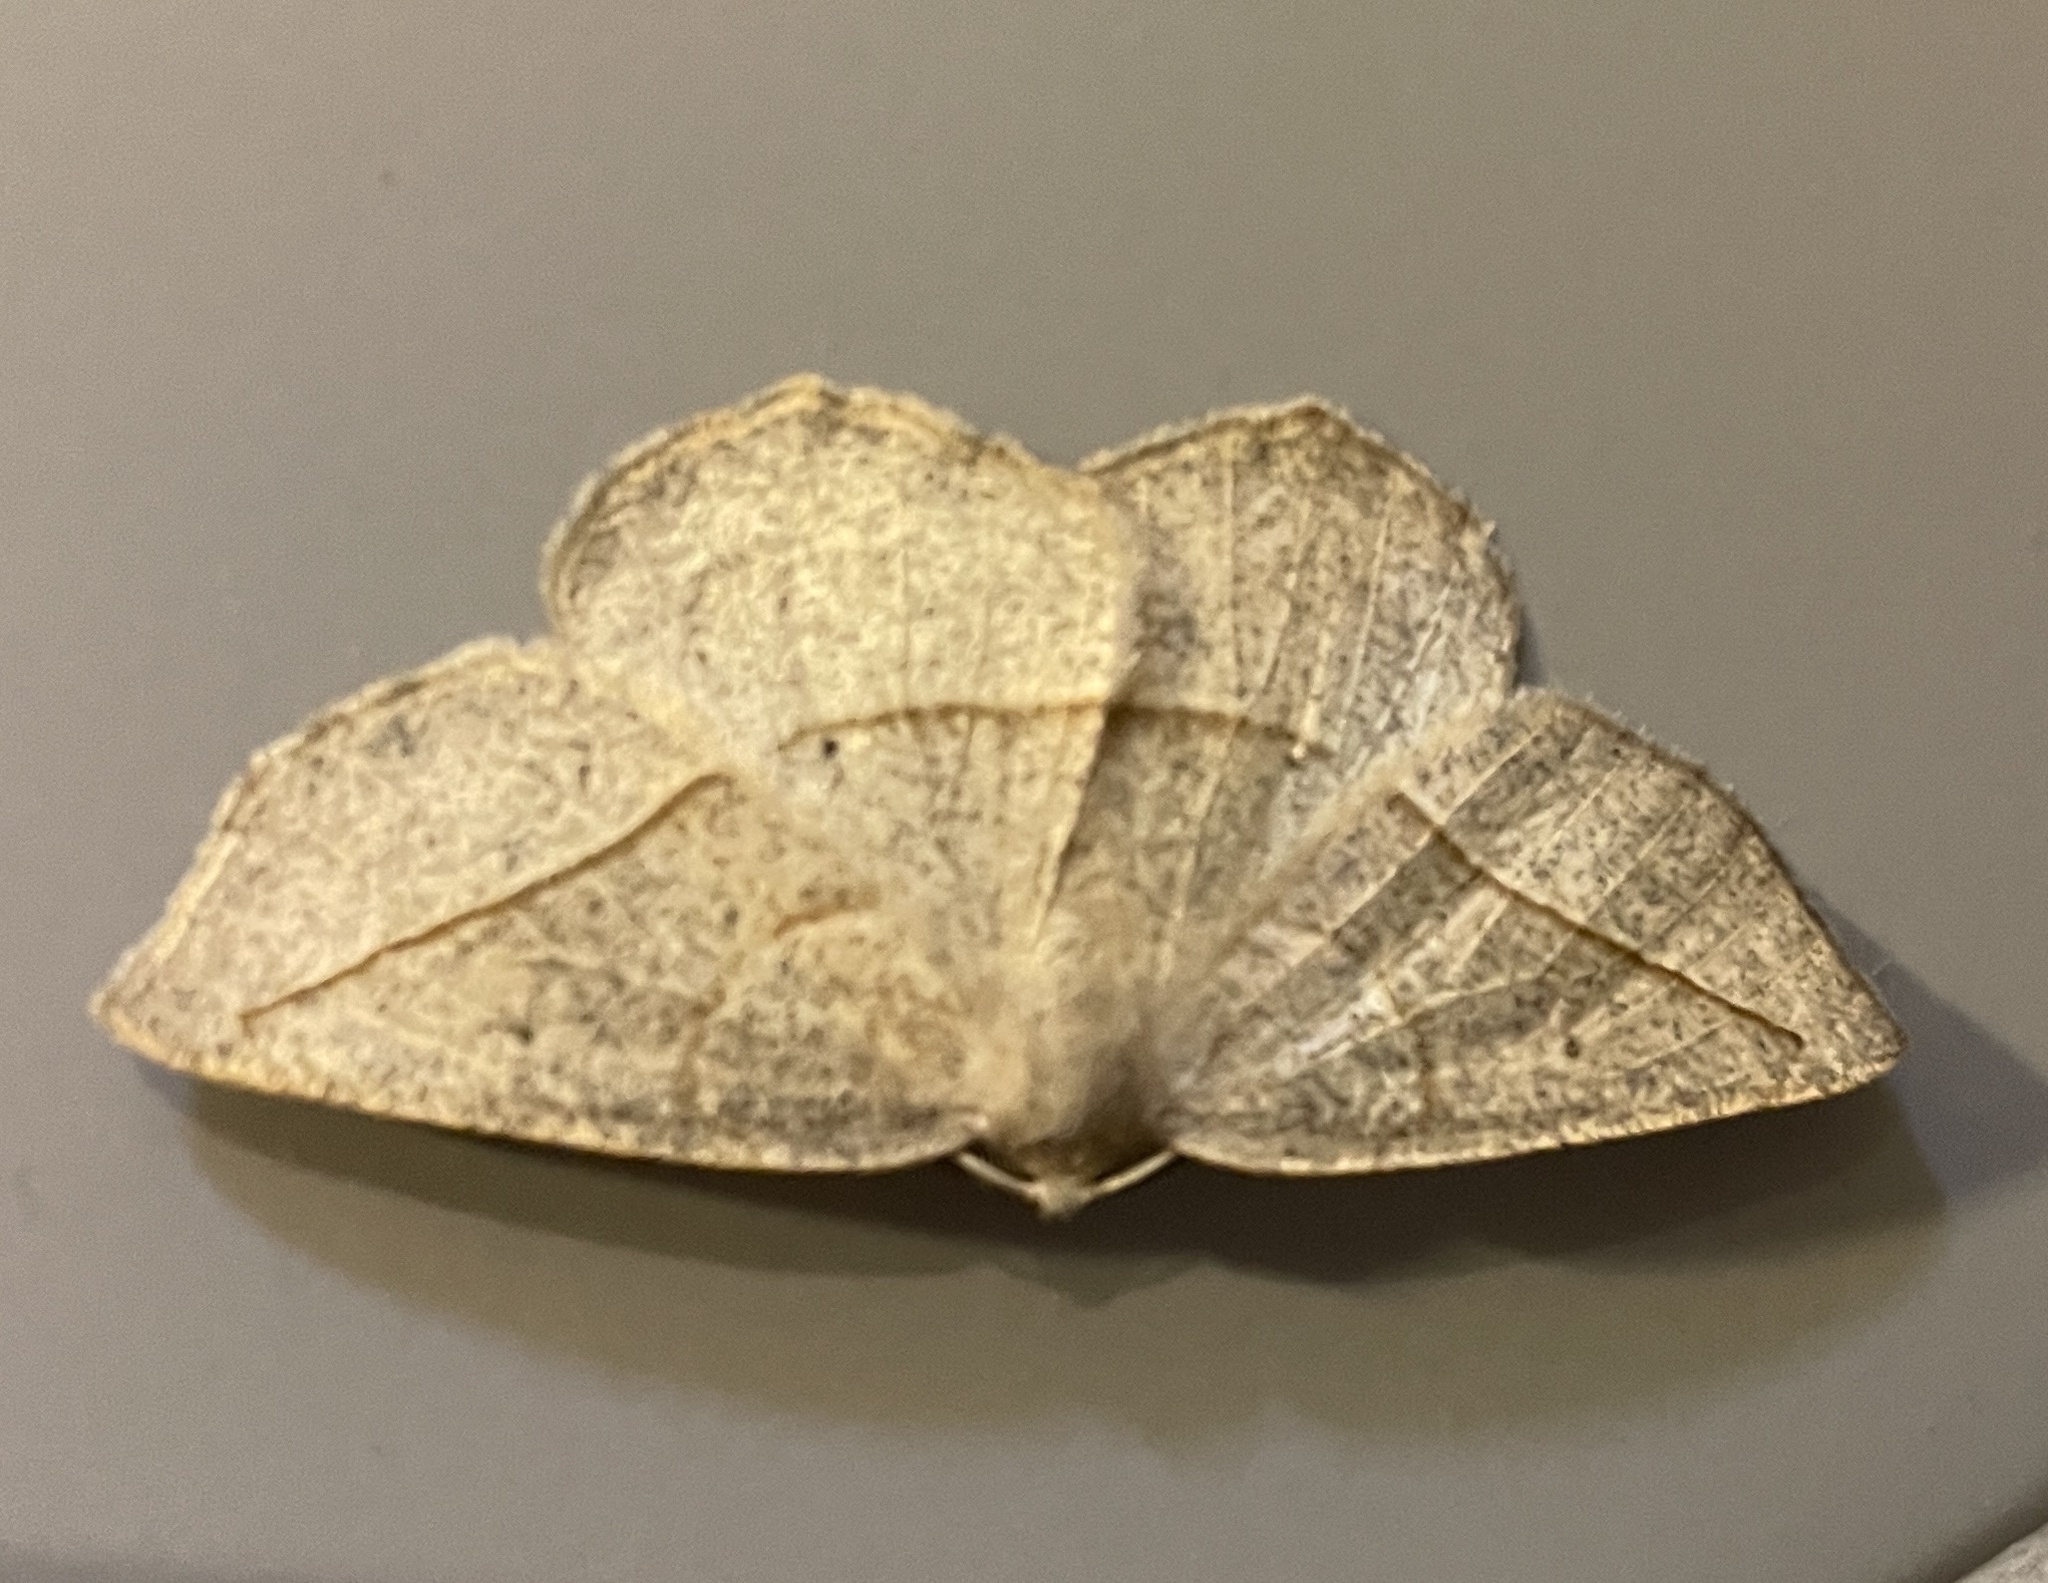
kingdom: Animalia
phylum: Arthropoda
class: Insecta
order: Lepidoptera
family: Geometridae
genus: Eusarca
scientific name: Eusarca confusaria
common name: Confused eusarca
